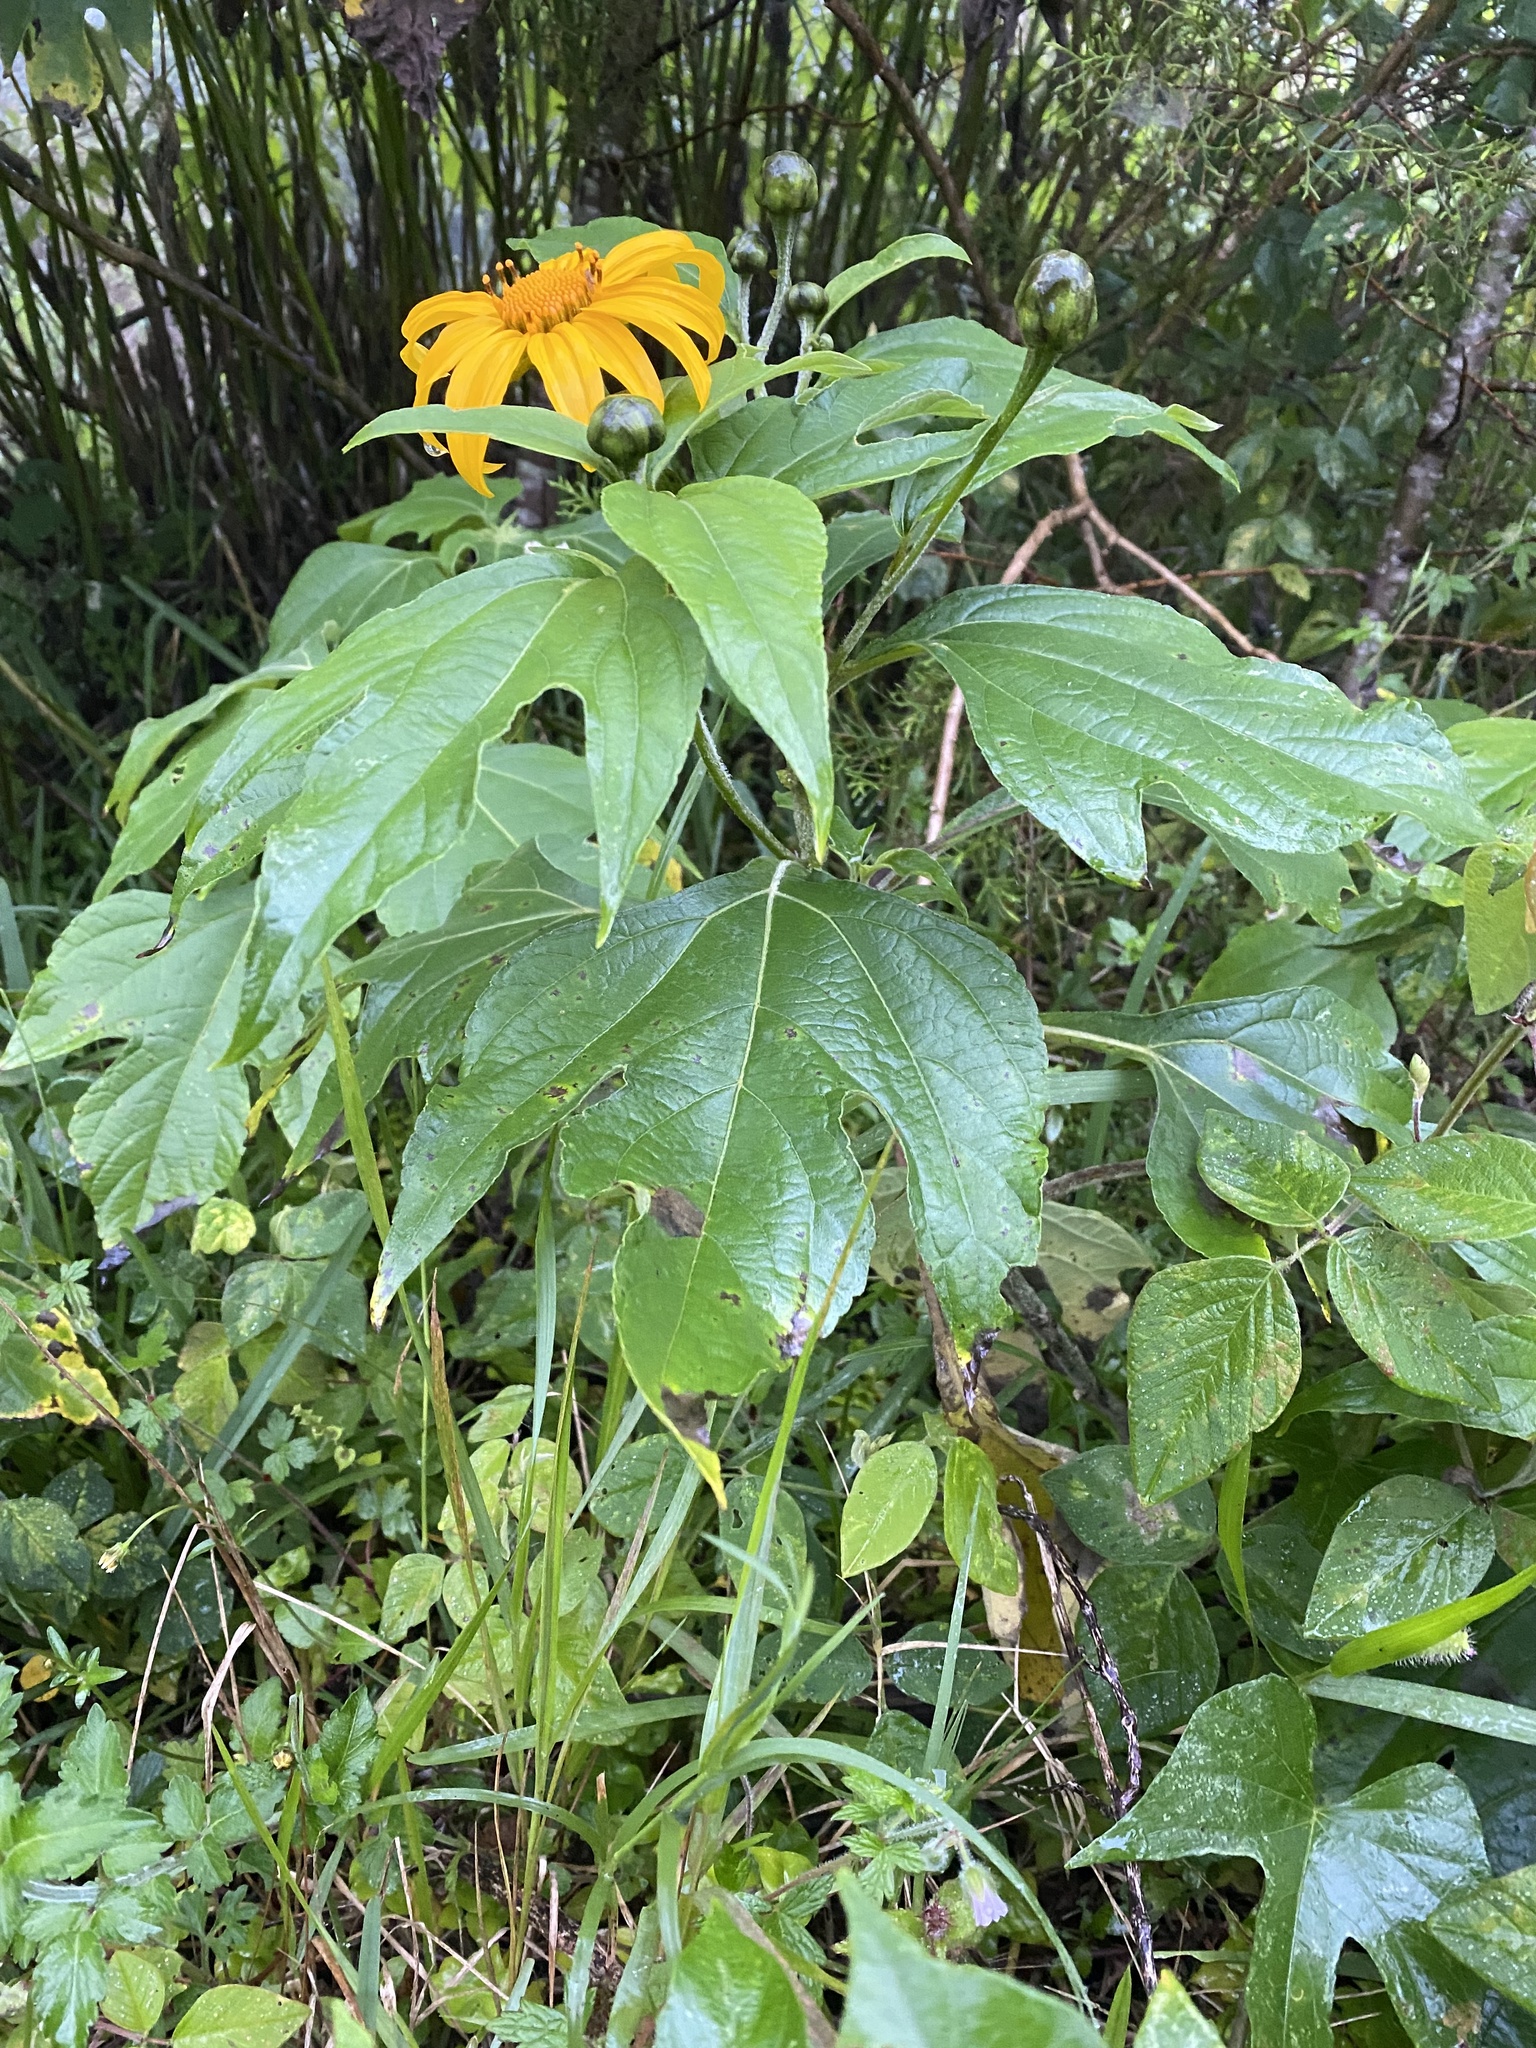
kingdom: Plantae
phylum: Tracheophyta
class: Magnoliopsida
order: Asterales
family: Asteraceae
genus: Tithonia
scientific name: Tithonia diversifolia
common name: Tree marigold
